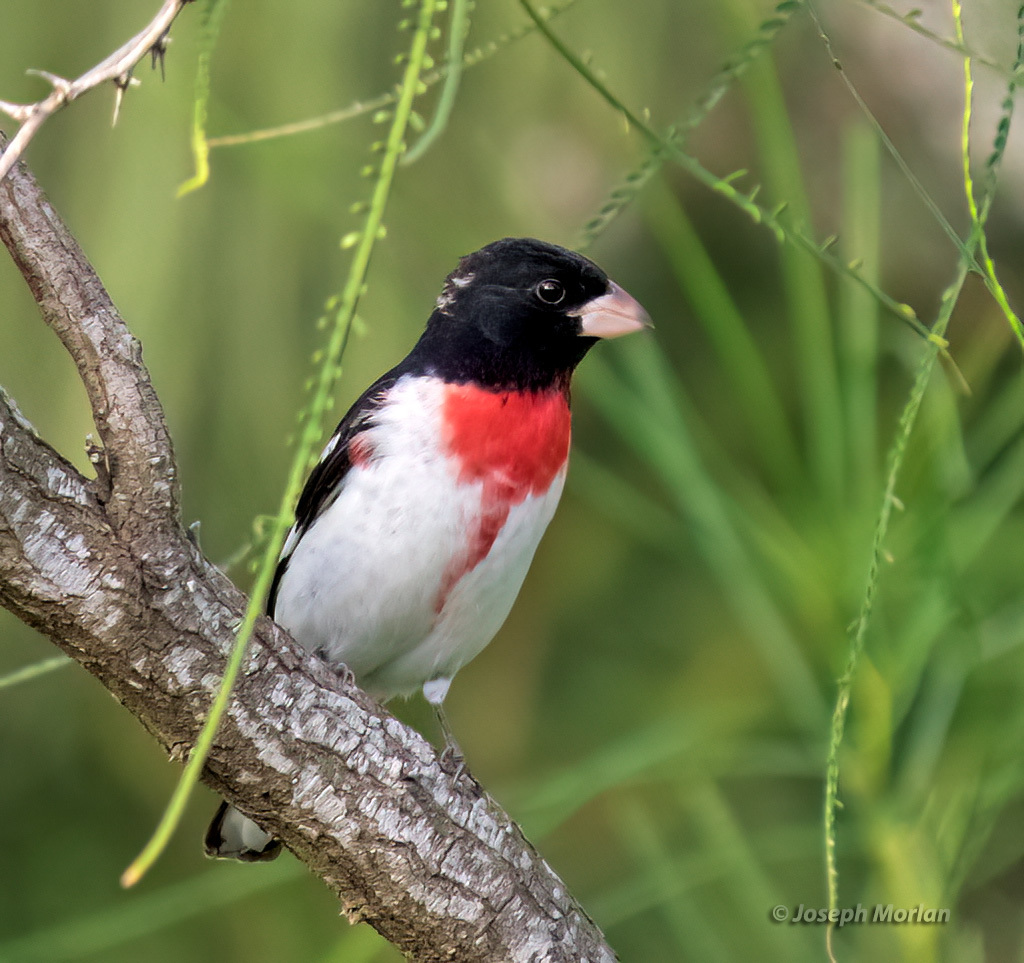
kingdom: Animalia
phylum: Chordata
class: Aves
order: Passeriformes
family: Cardinalidae
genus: Pheucticus
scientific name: Pheucticus ludovicianus
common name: Rose-breasted grosbeak
